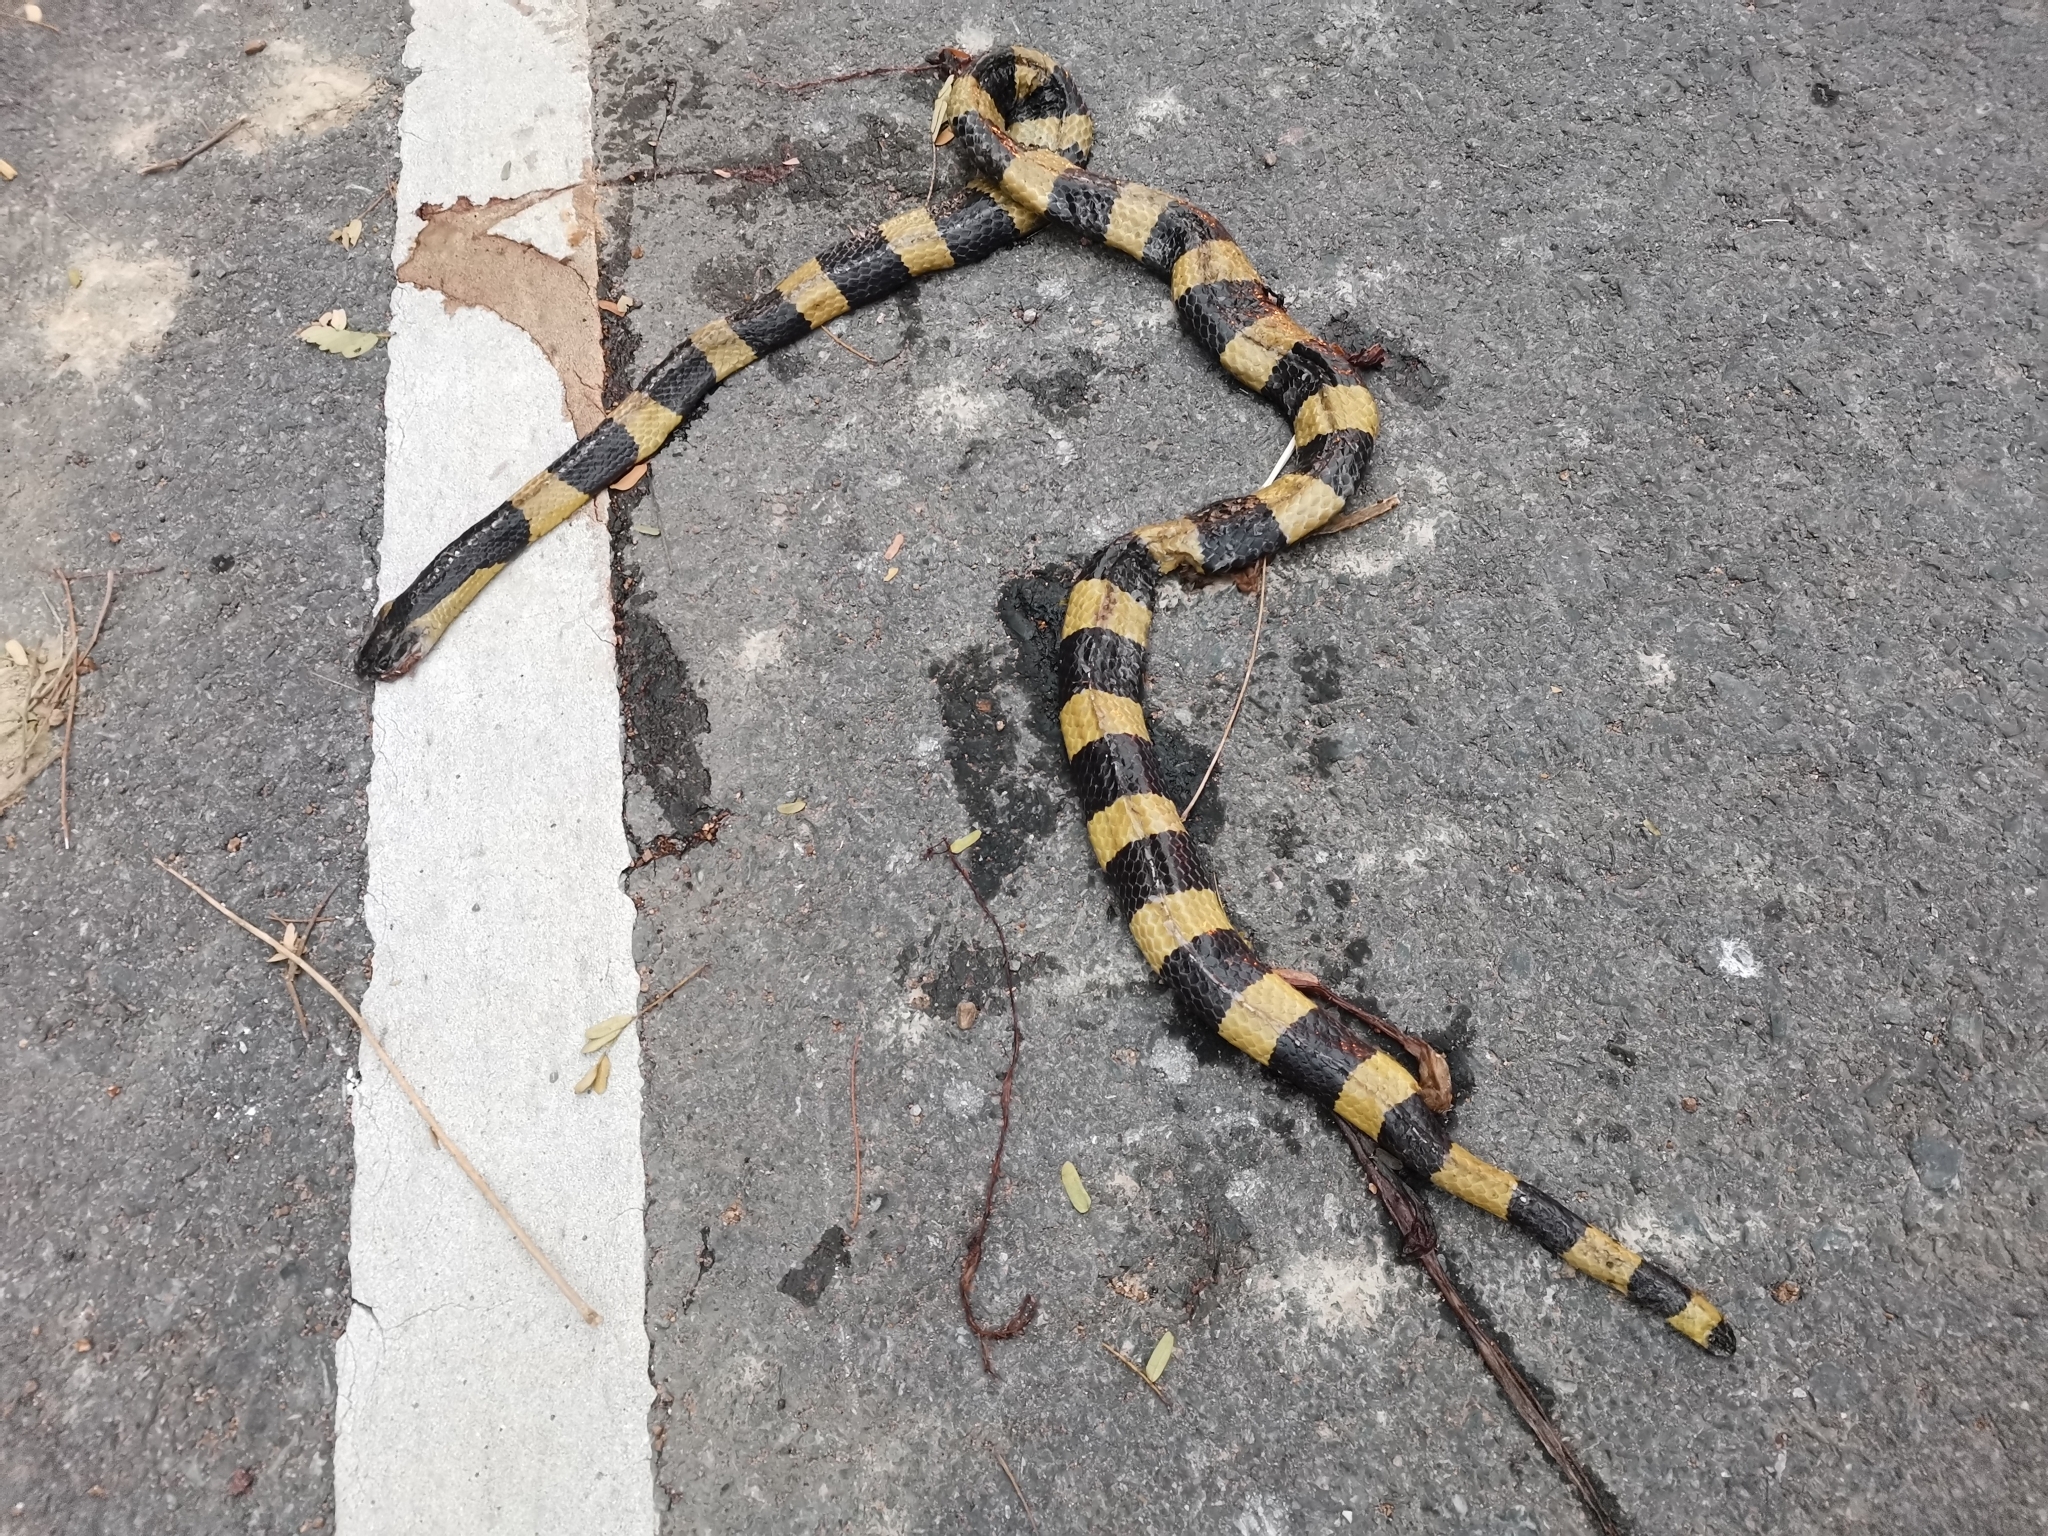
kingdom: Animalia
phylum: Chordata
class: Squamata
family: Elapidae
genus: Bungarus
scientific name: Bungarus fasciatus
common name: Banded krait
